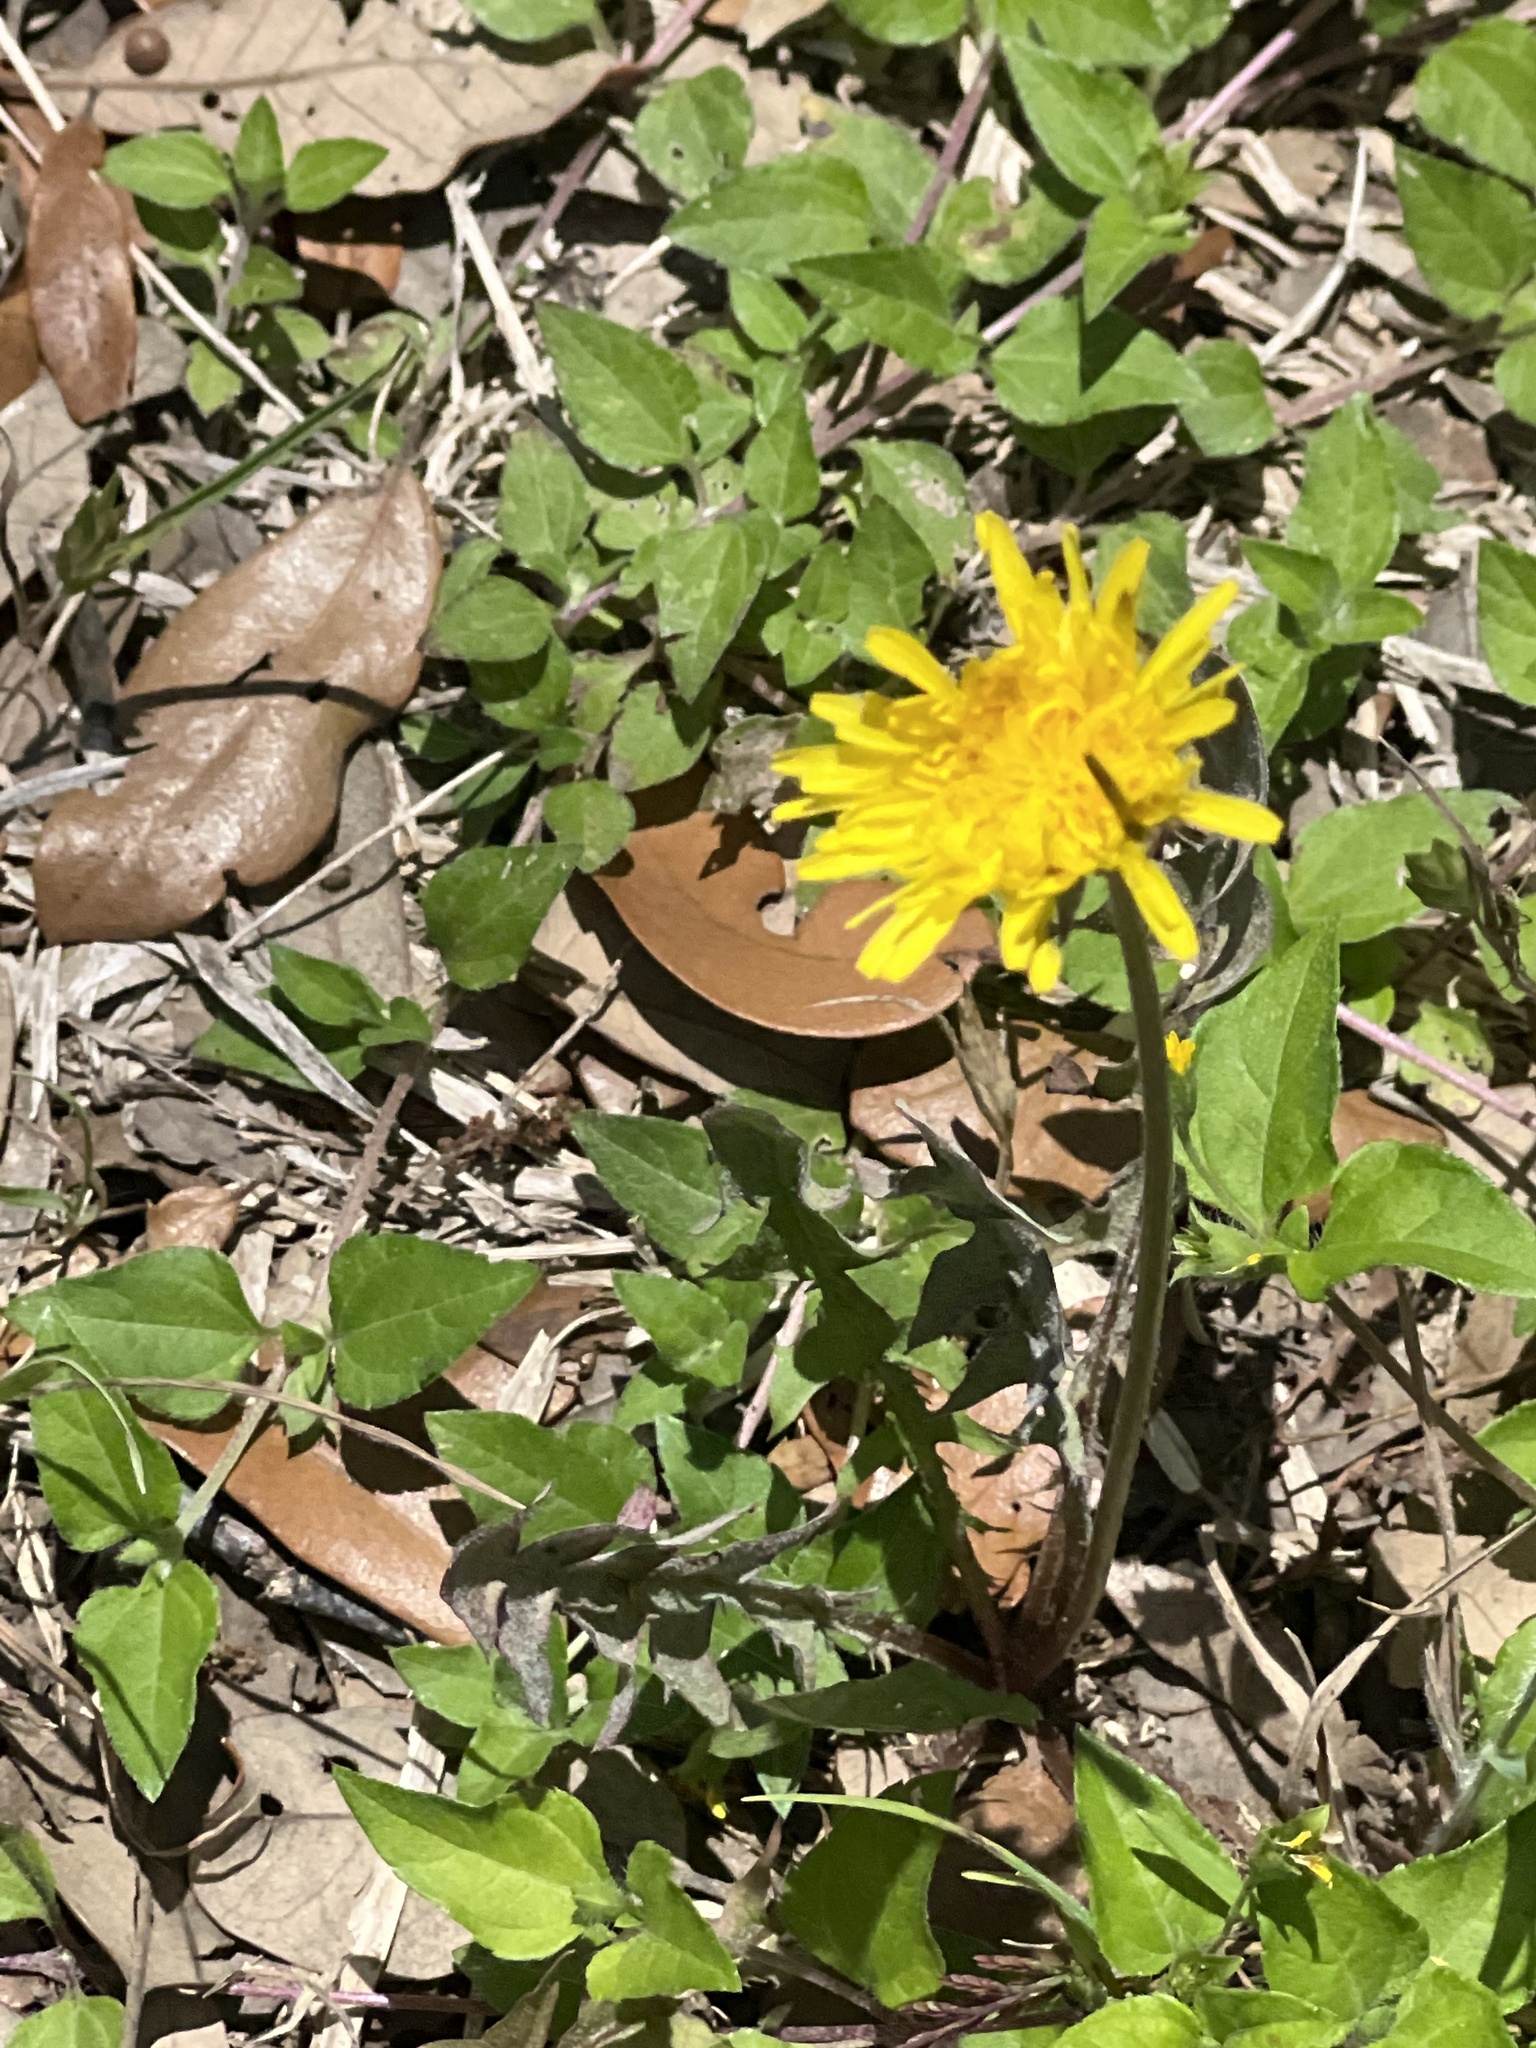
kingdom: Plantae
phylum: Tracheophyta
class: Magnoliopsida
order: Asterales
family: Asteraceae
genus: Taraxacum
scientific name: Taraxacum officinale
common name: Common dandelion
